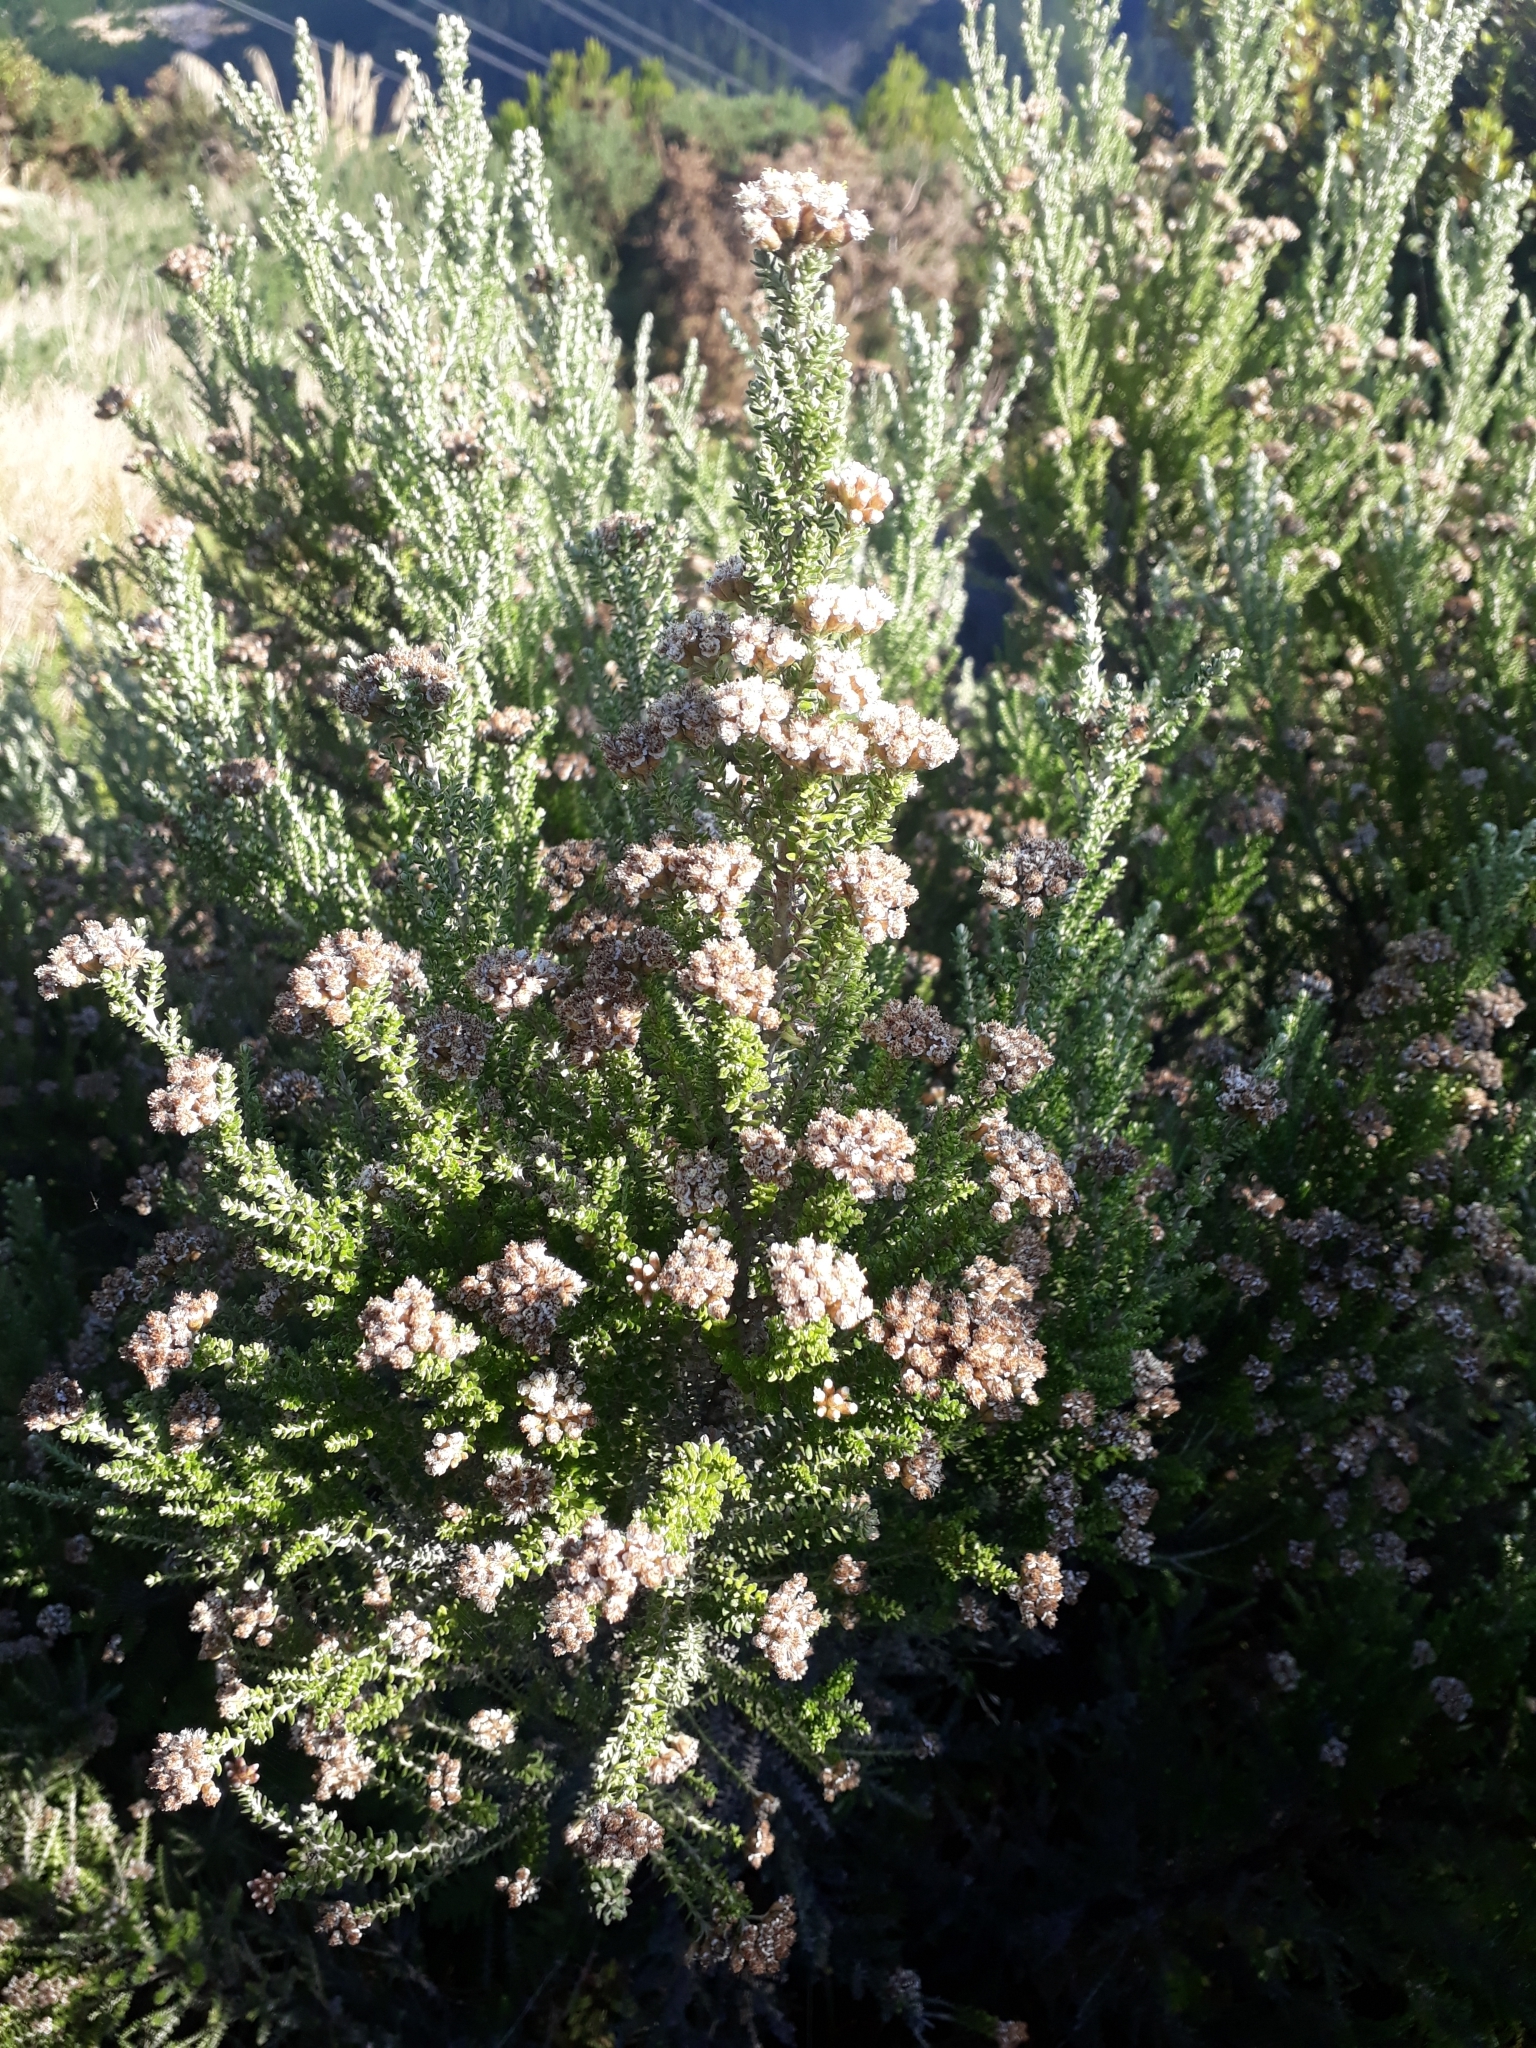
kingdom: Plantae
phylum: Tracheophyta
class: Magnoliopsida
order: Asterales
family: Asteraceae
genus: Ozothamnus
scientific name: Ozothamnus leptophyllus
